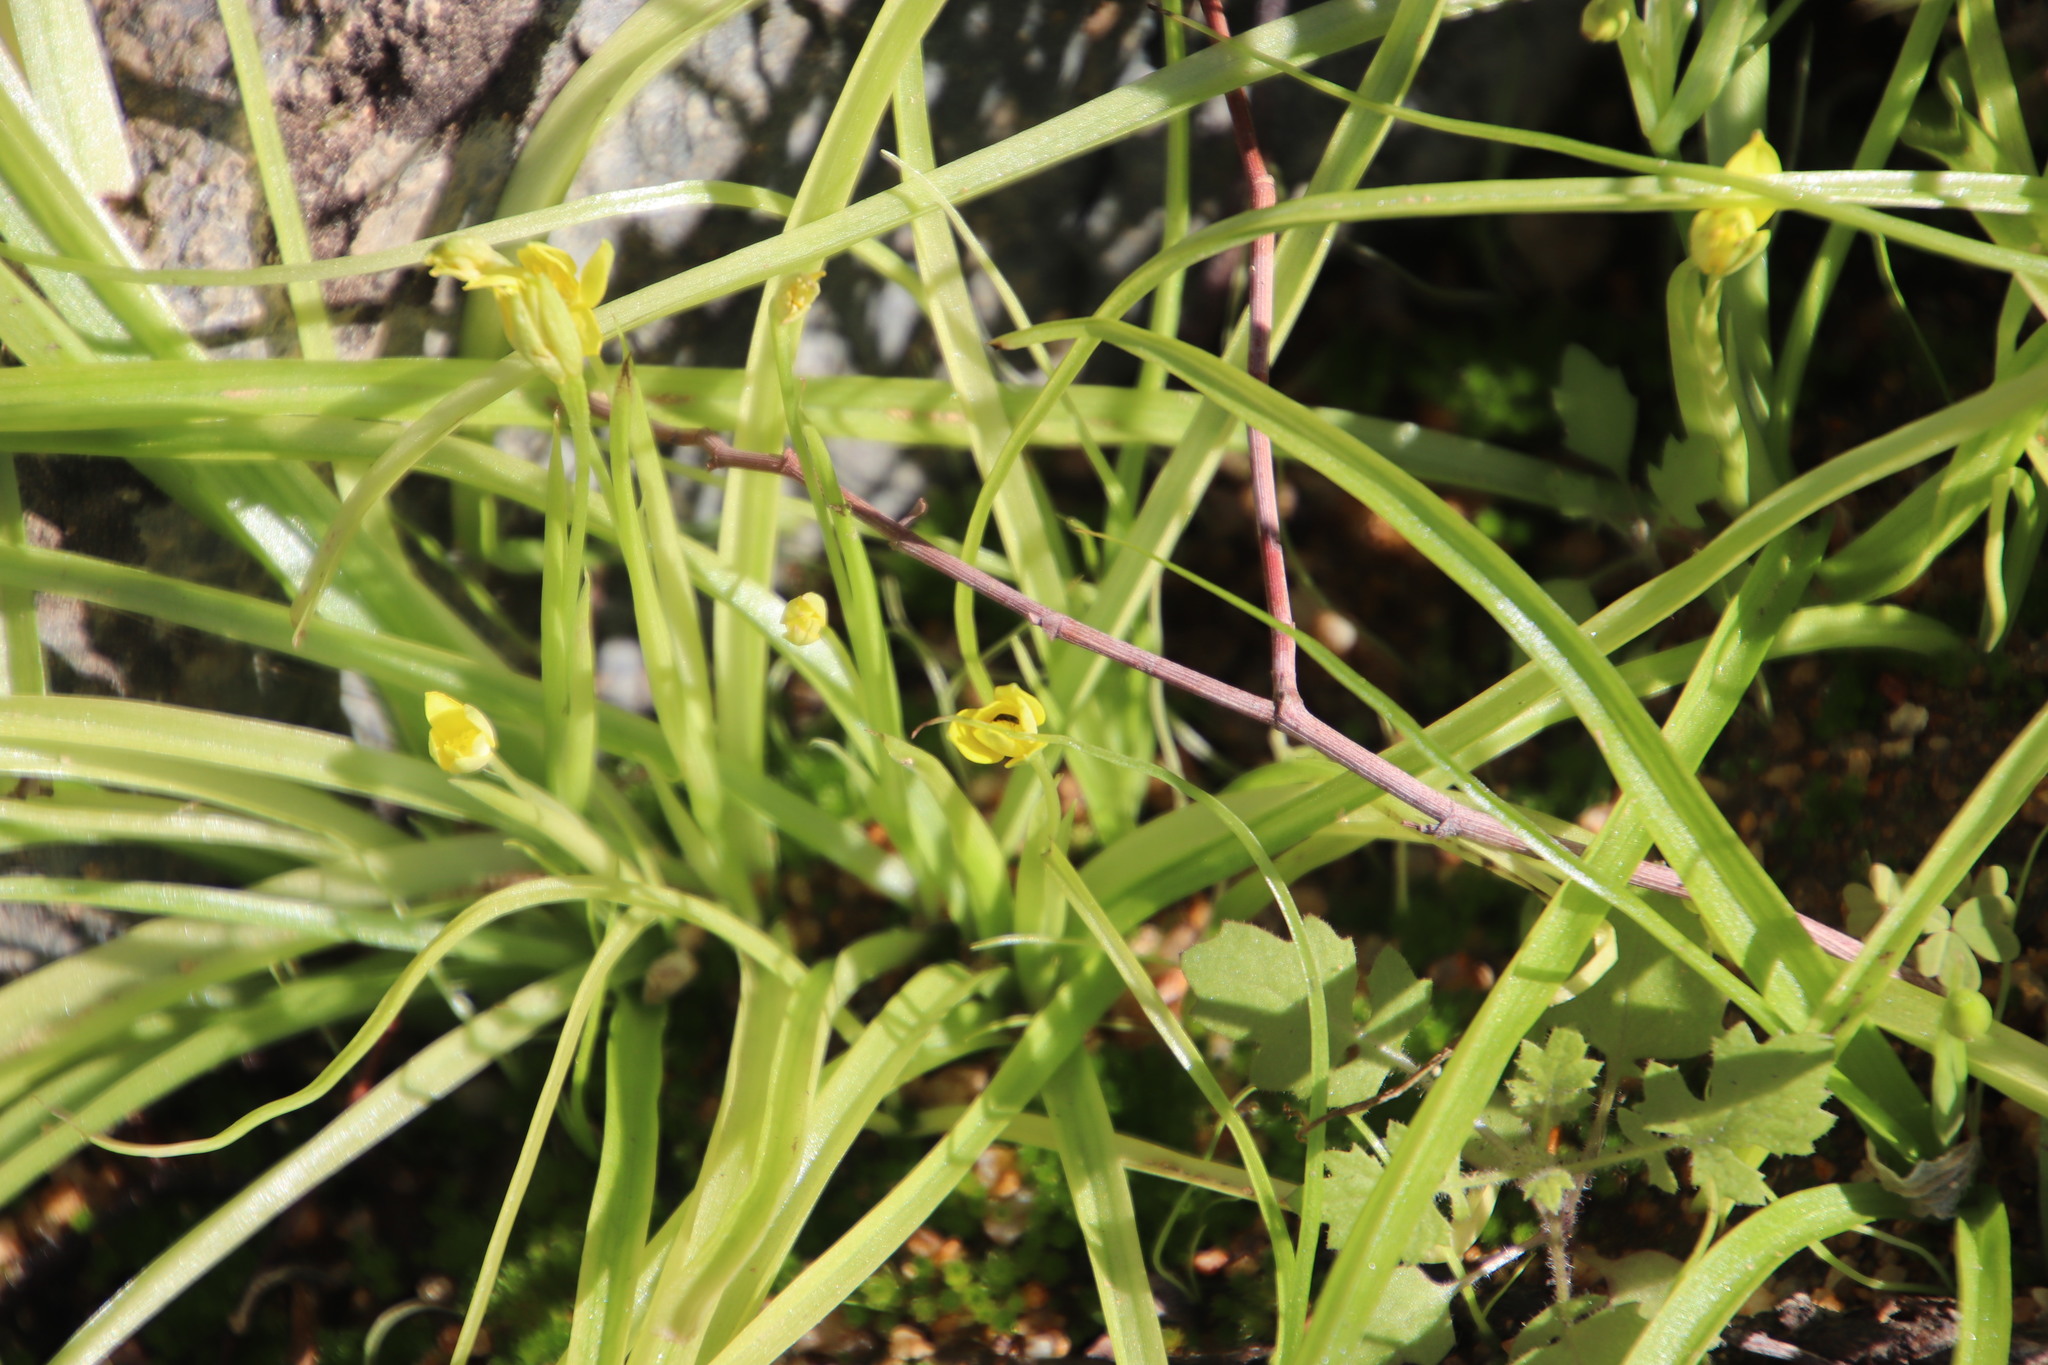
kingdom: Plantae
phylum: Tracheophyta
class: Liliopsida
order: Asparagales
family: Hypoxidaceae
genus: Pauridia
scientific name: Pauridia scullyi
